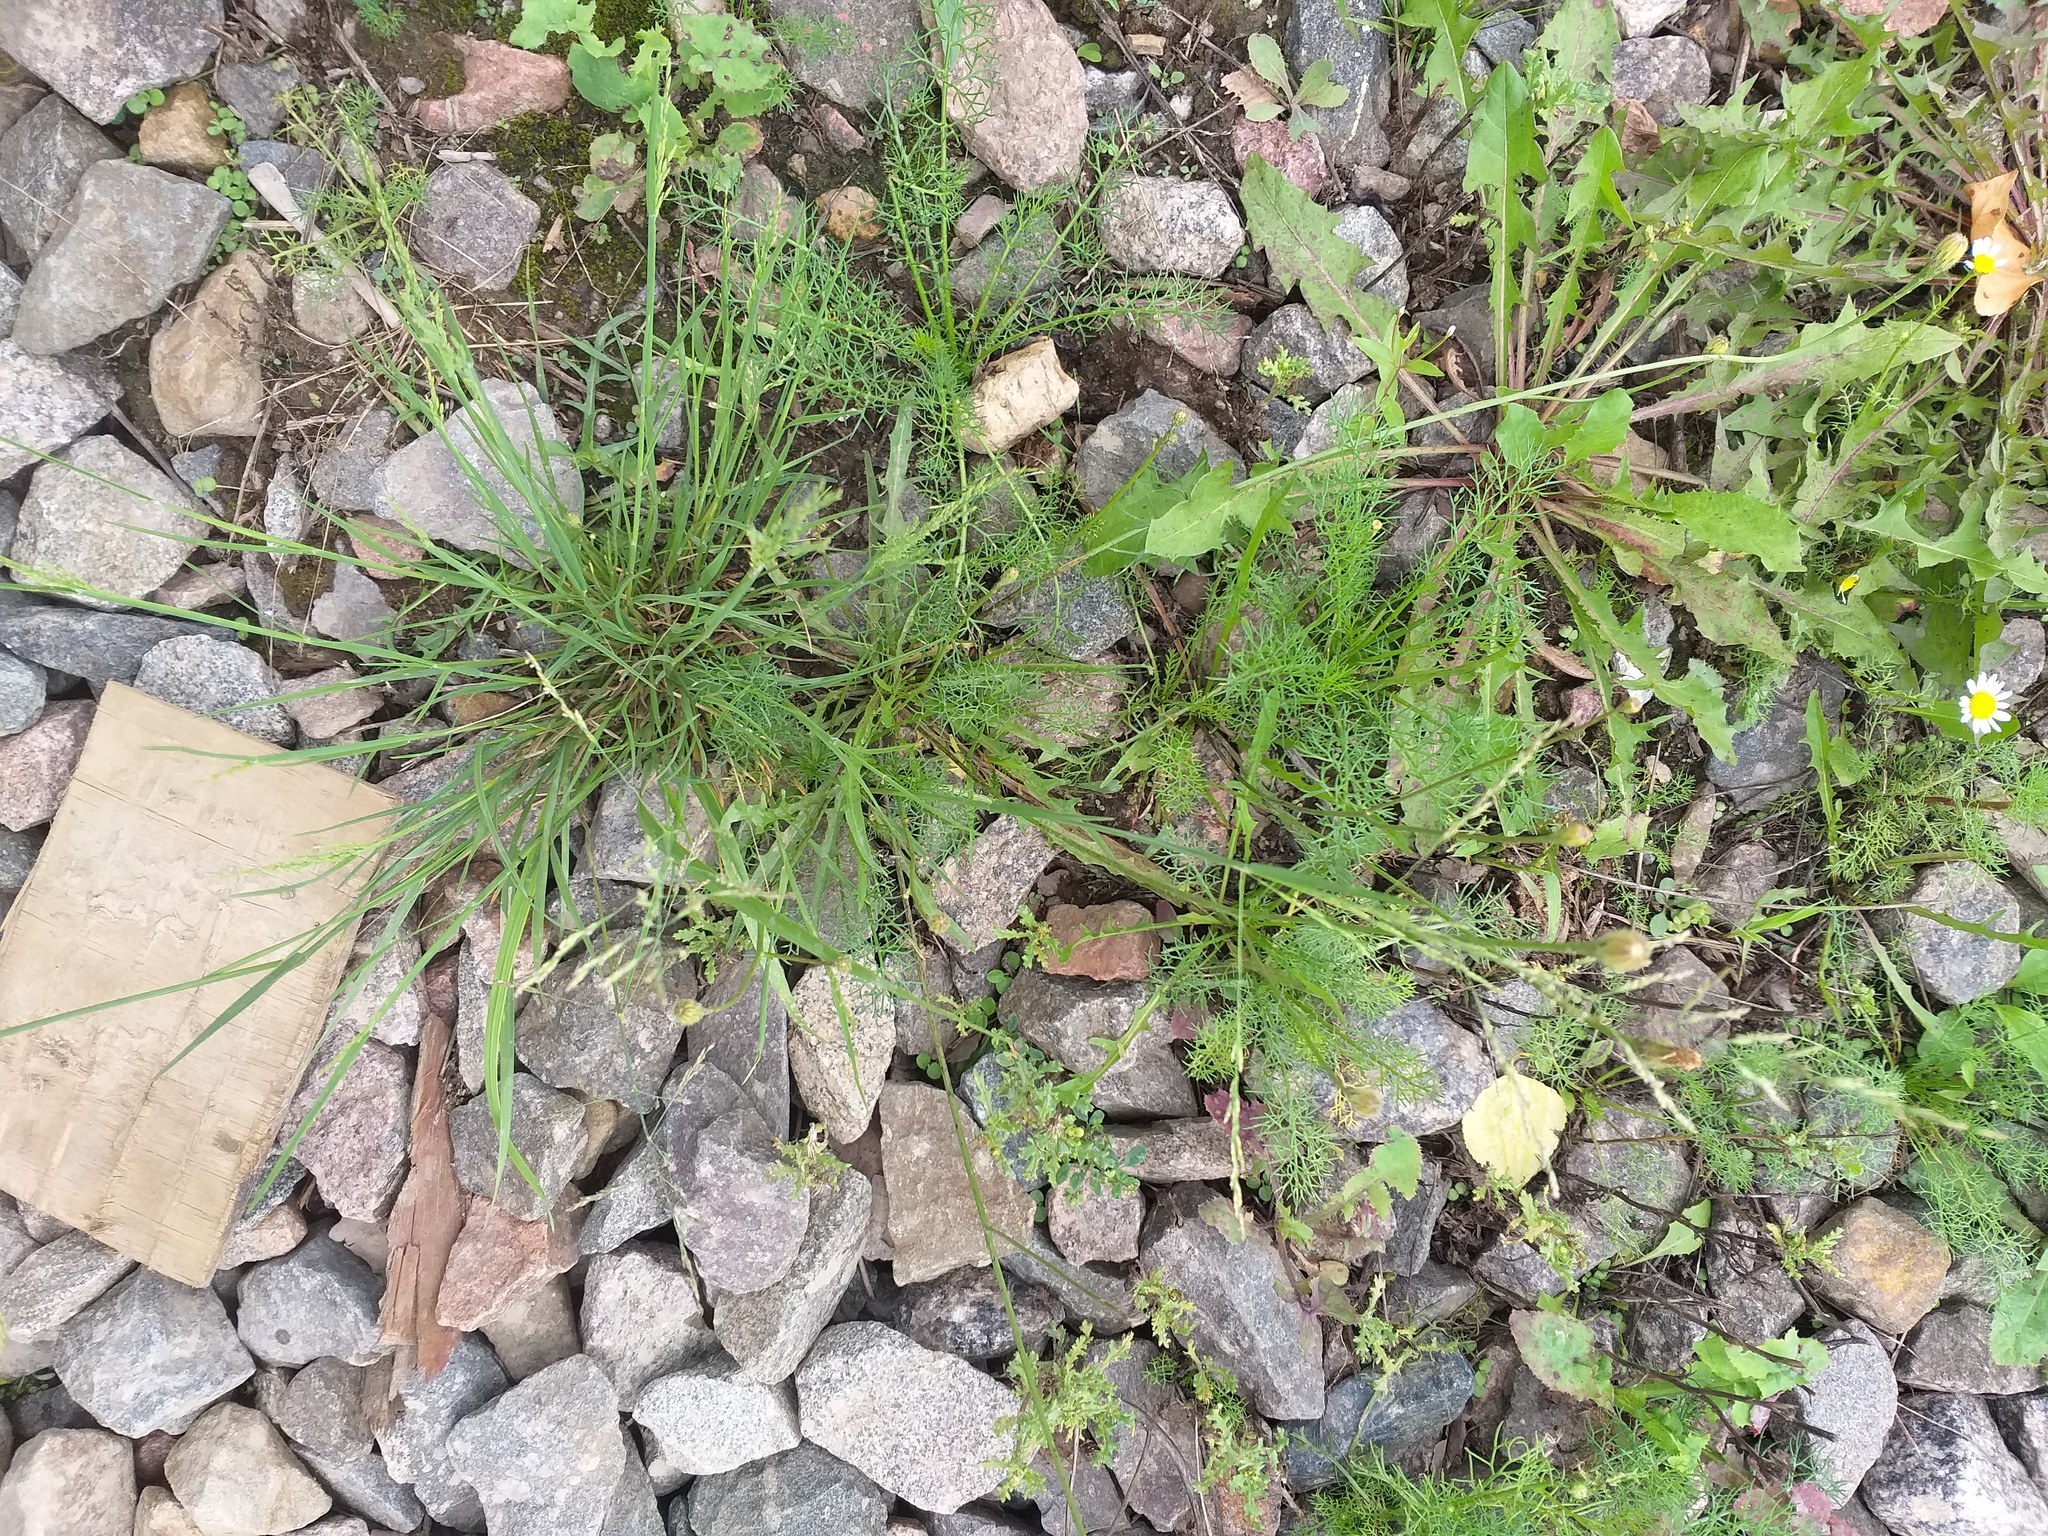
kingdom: Plantae
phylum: Tracheophyta
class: Magnoliopsida
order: Asterales
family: Asteraceae
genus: Scorzoneroides
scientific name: Scorzoneroides autumnalis
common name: Autumn hawkbit
